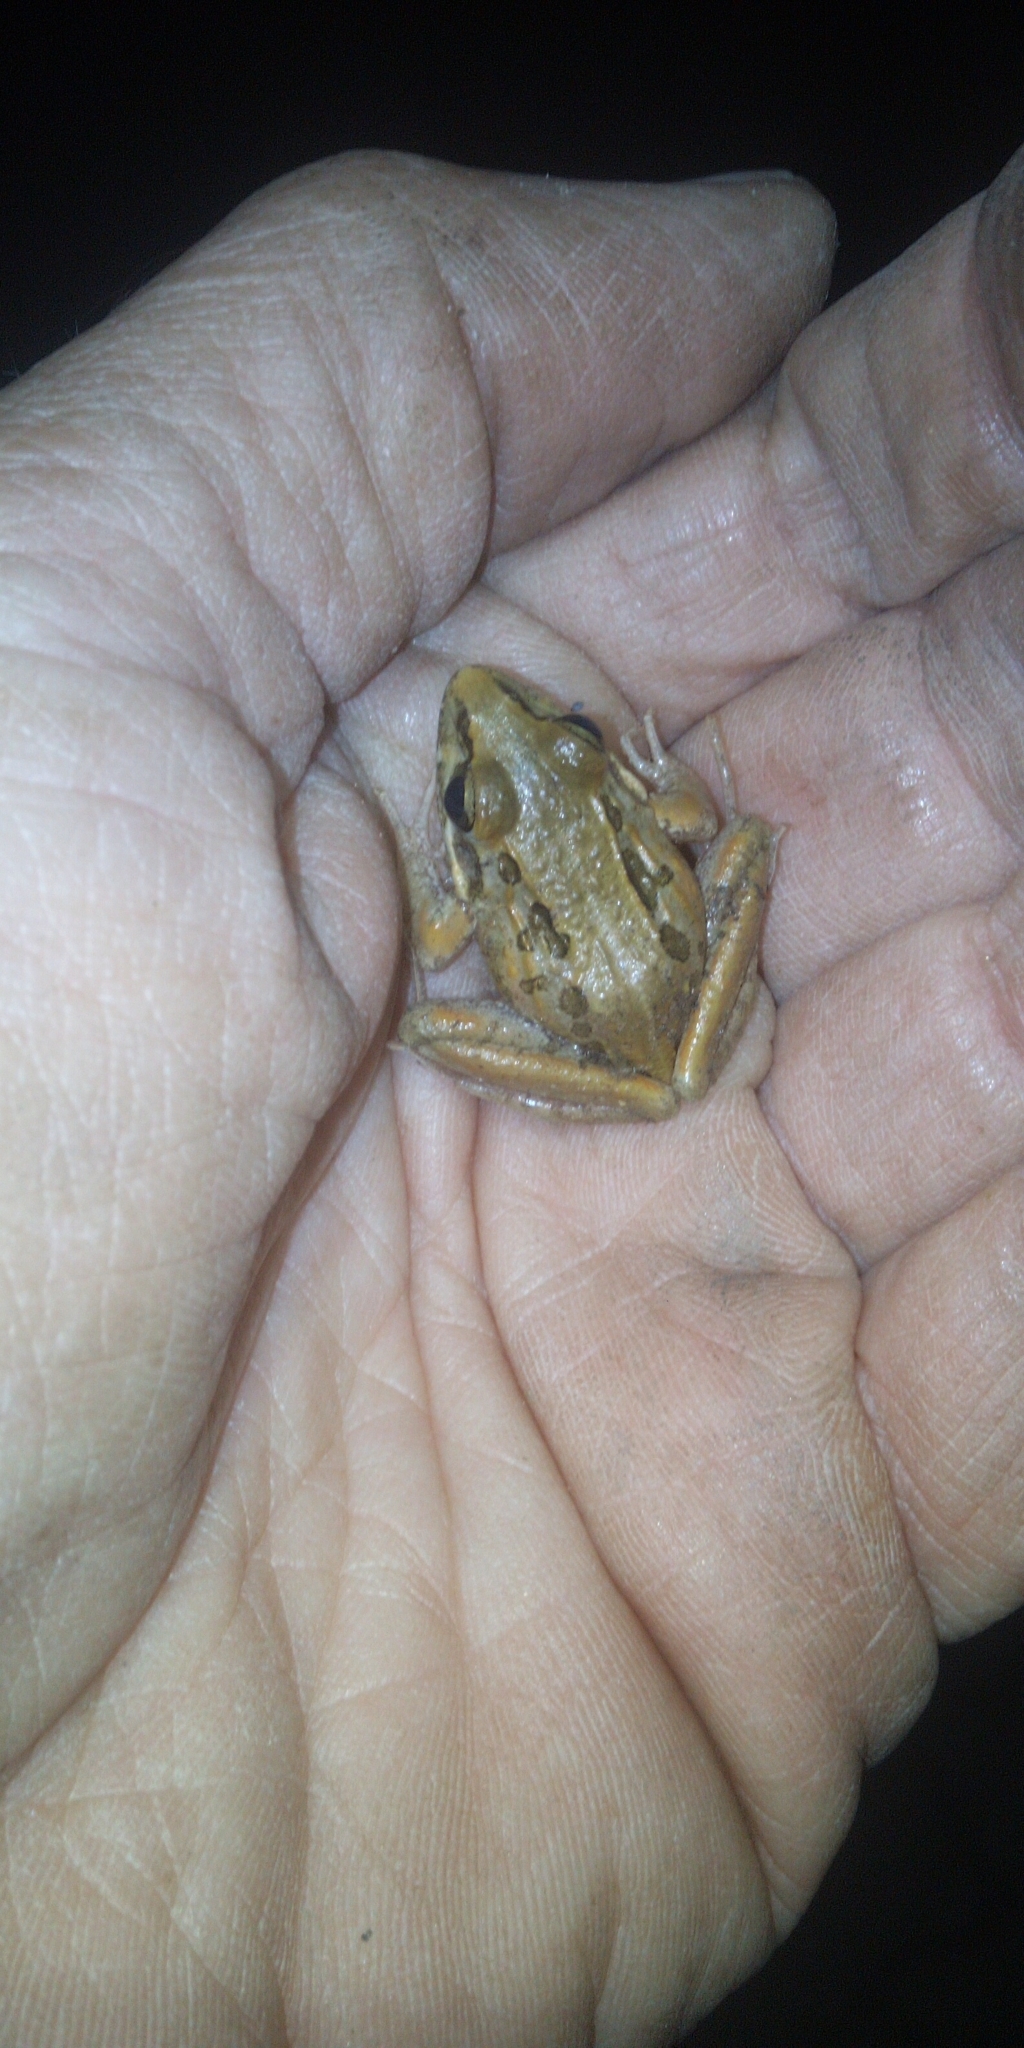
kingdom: Animalia
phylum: Chordata
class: Amphibia
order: Anura
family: Pyxicephalidae
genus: Strongylopus
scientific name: Strongylopus grayii
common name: Gray's stream frog
